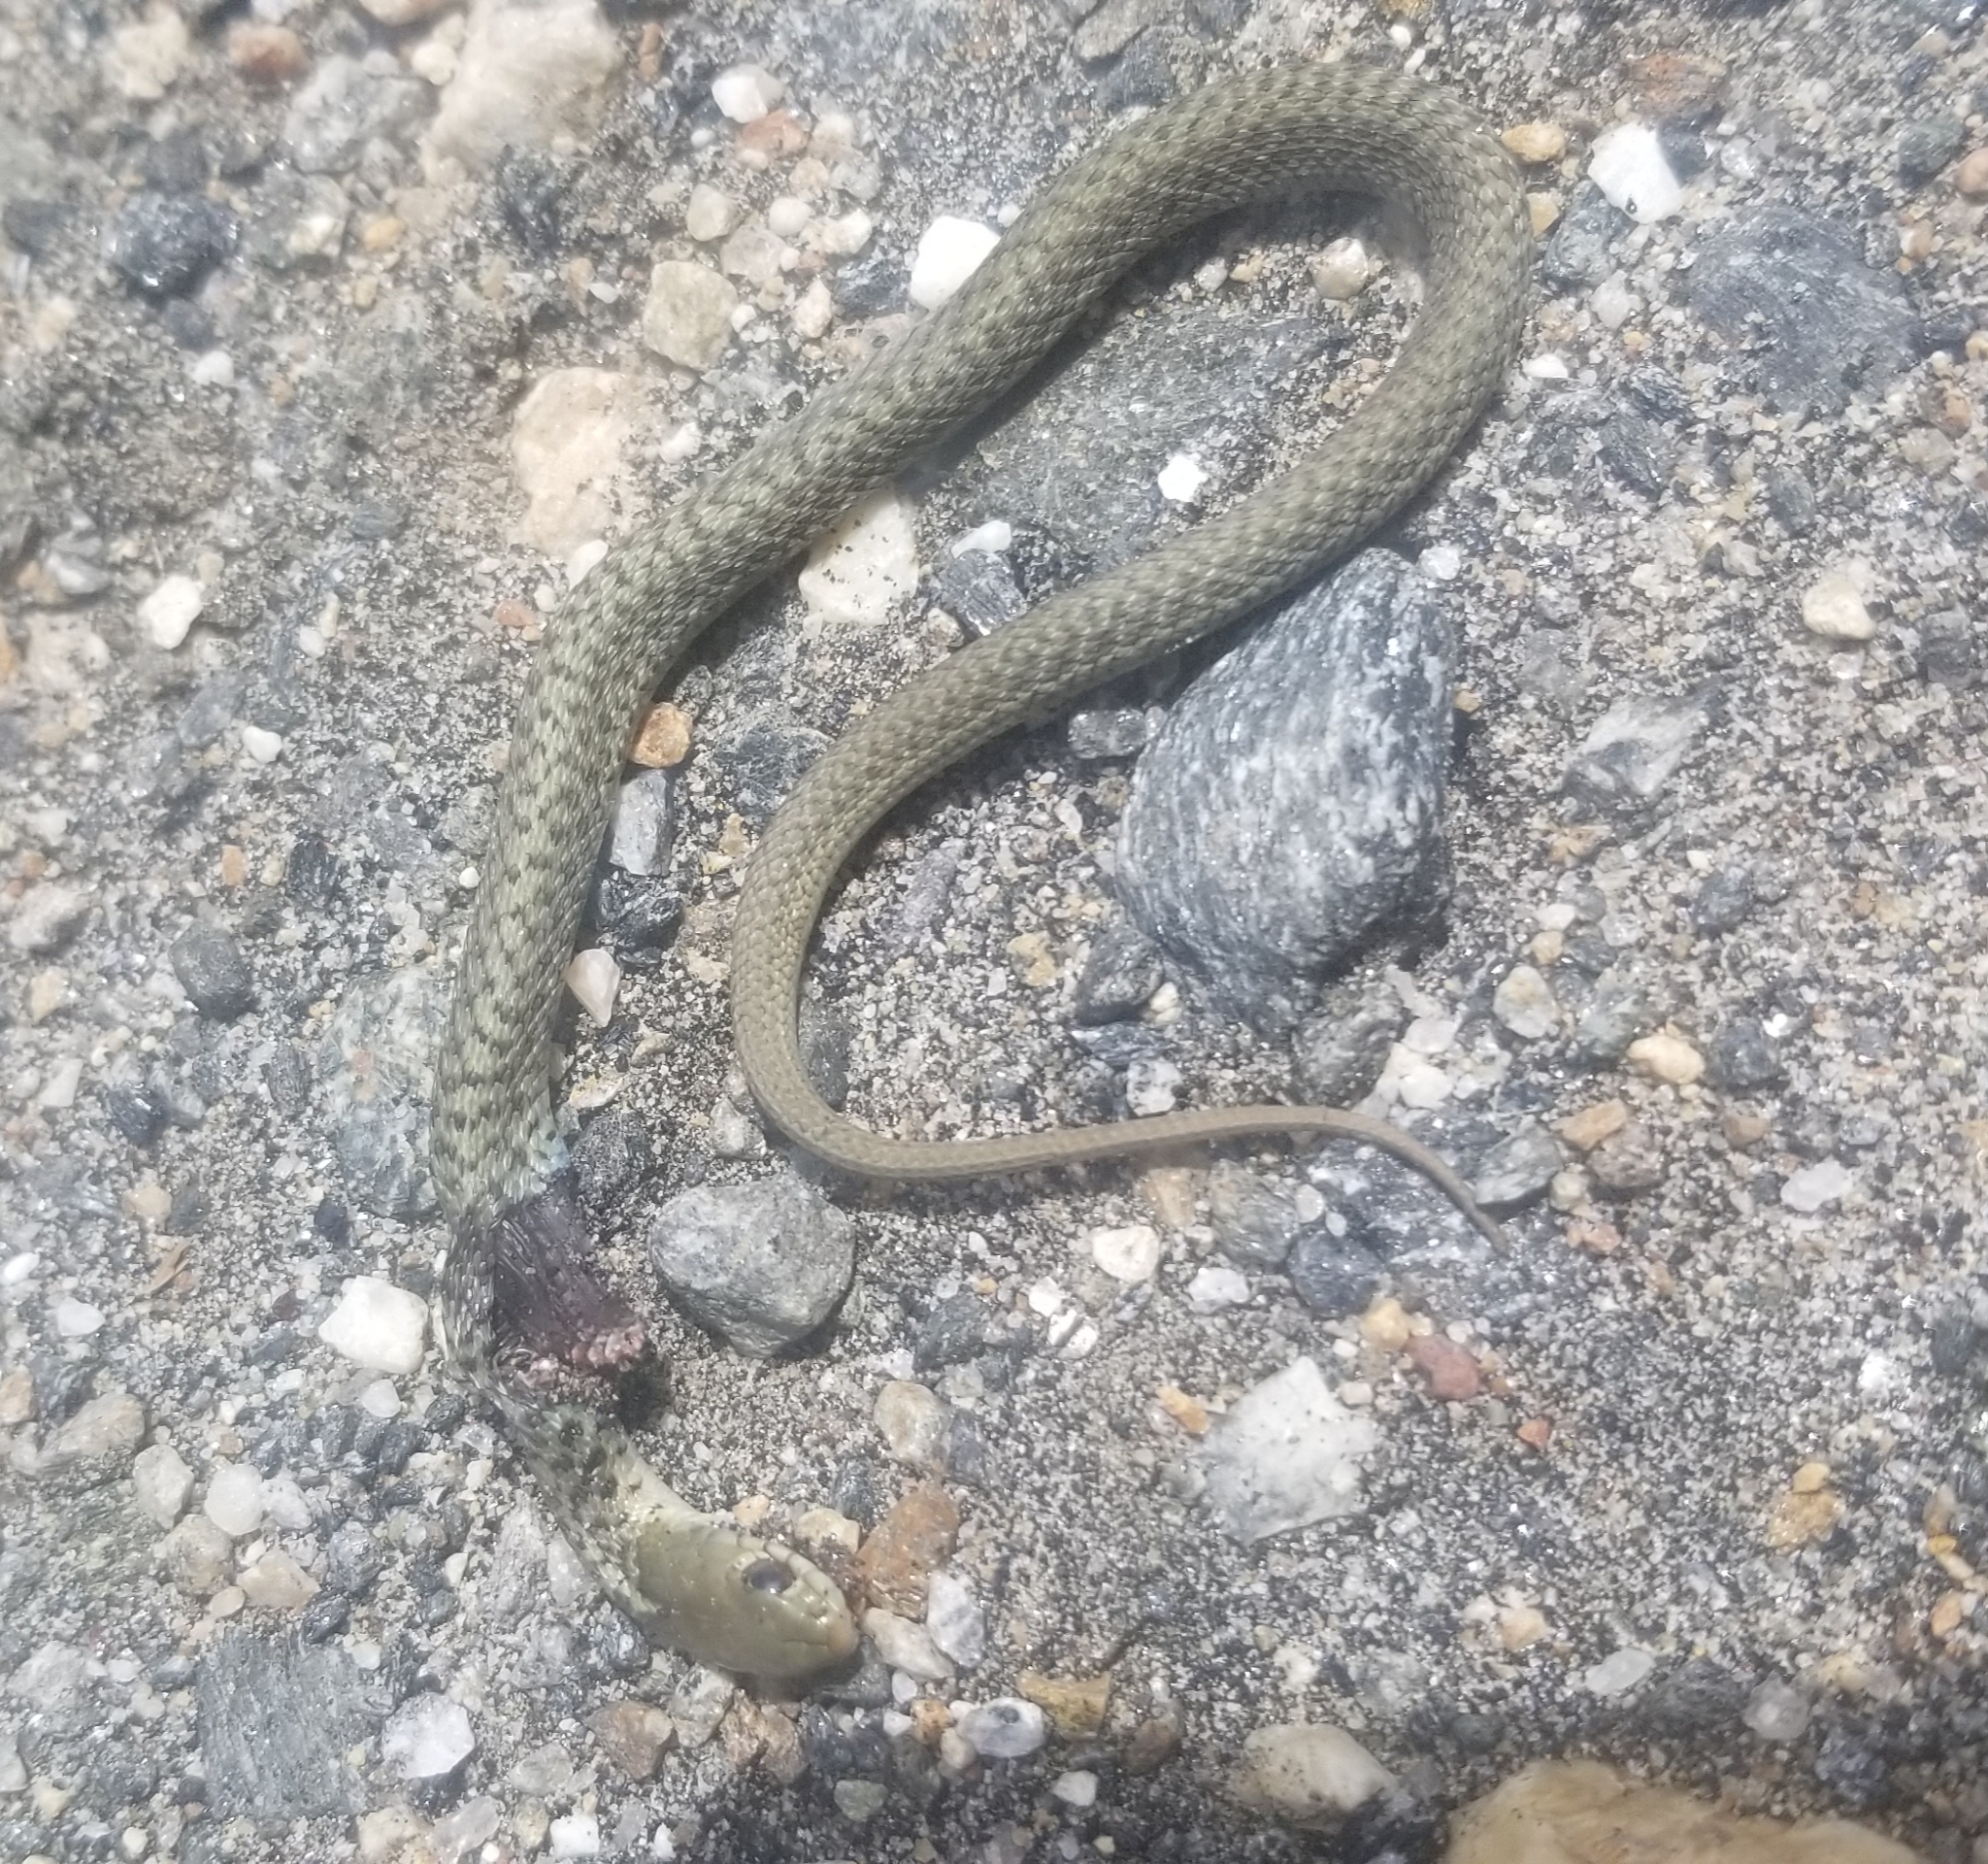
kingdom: Animalia
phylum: Chordata
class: Squamata
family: Colubridae
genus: Thamnophis
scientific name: Thamnophis sirtalis
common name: Common garter snake
